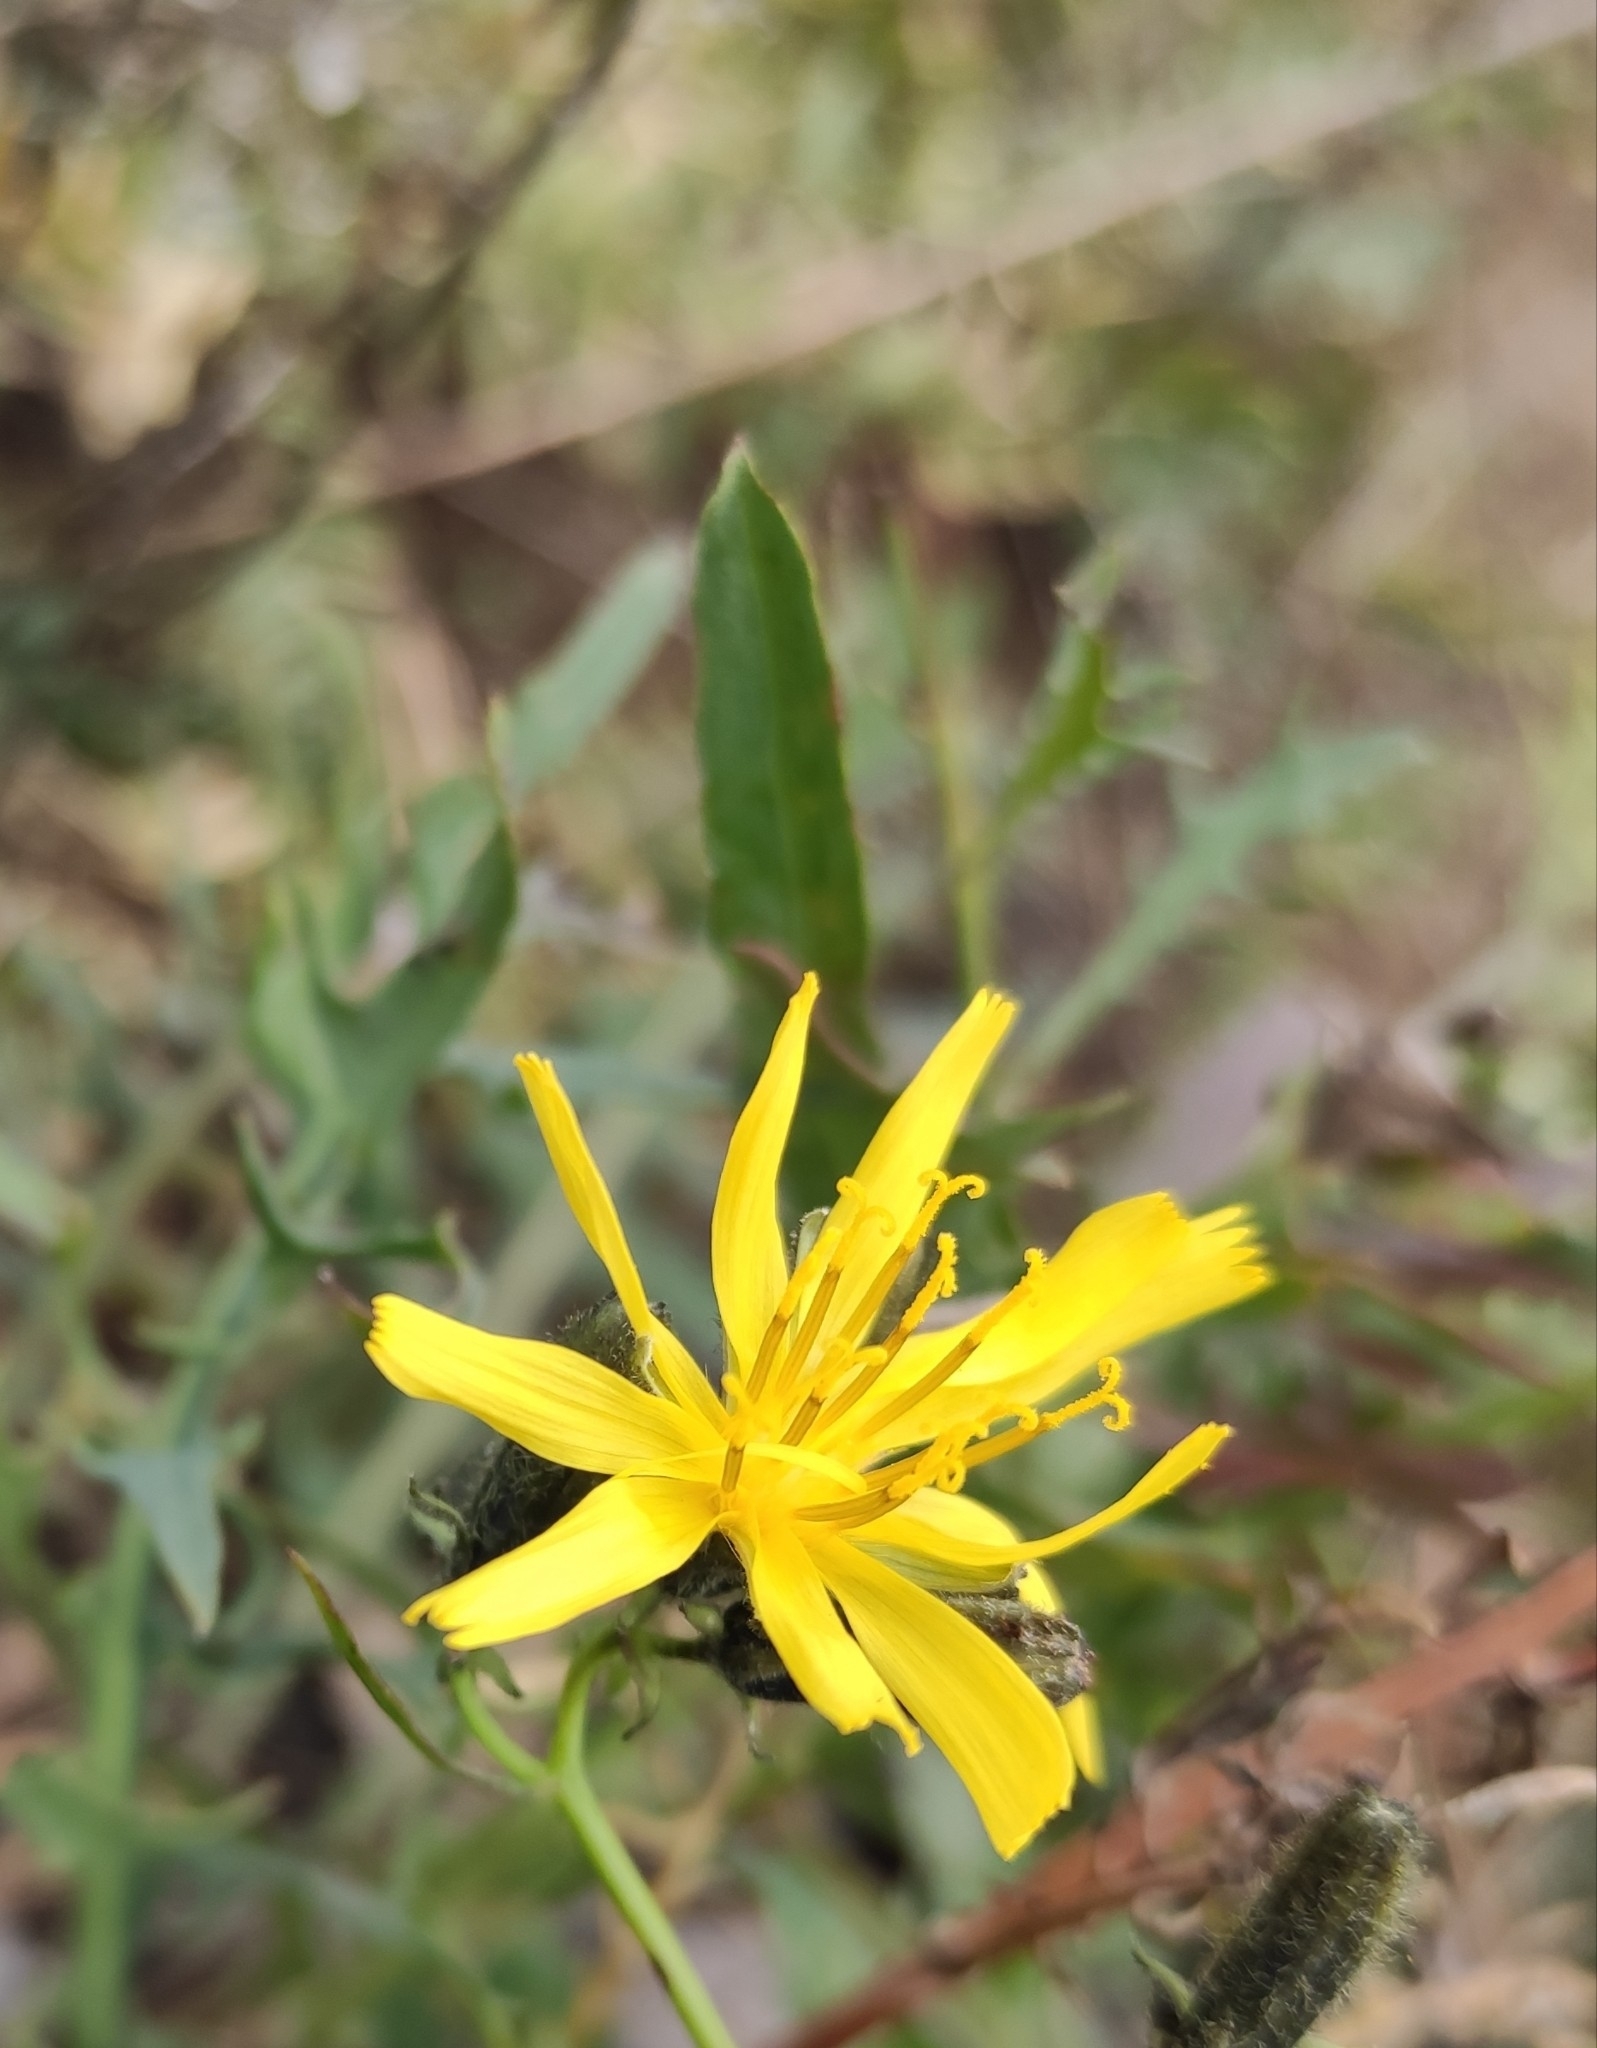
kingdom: Plantae
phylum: Tracheophyta
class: Magnoliopsida
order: Asterales
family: Asteraceae
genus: Crepidiastrum
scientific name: Crepidiastrum tenuifolium
